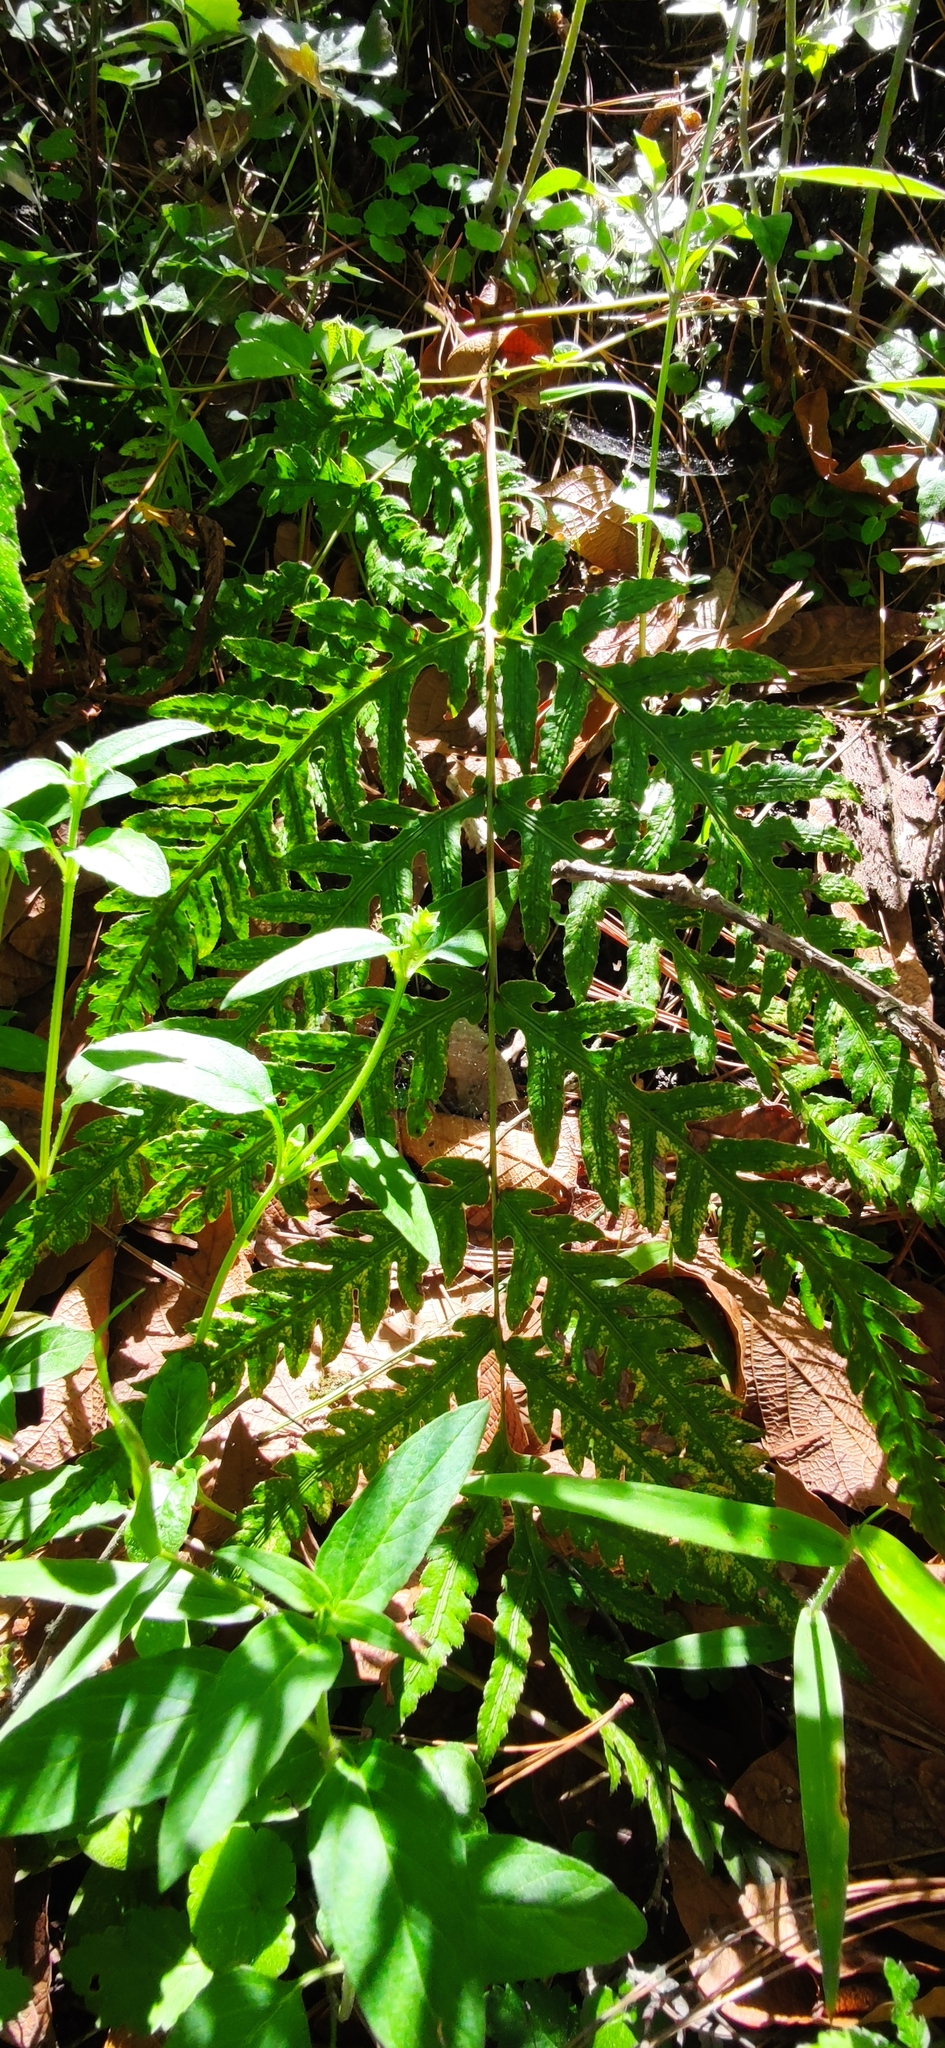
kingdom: Plantae
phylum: Tracheophyta
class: Polypodiopsida
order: Polypodiales
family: Blechnaceae
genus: Woodwardia
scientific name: Woodwardia spinulosa
